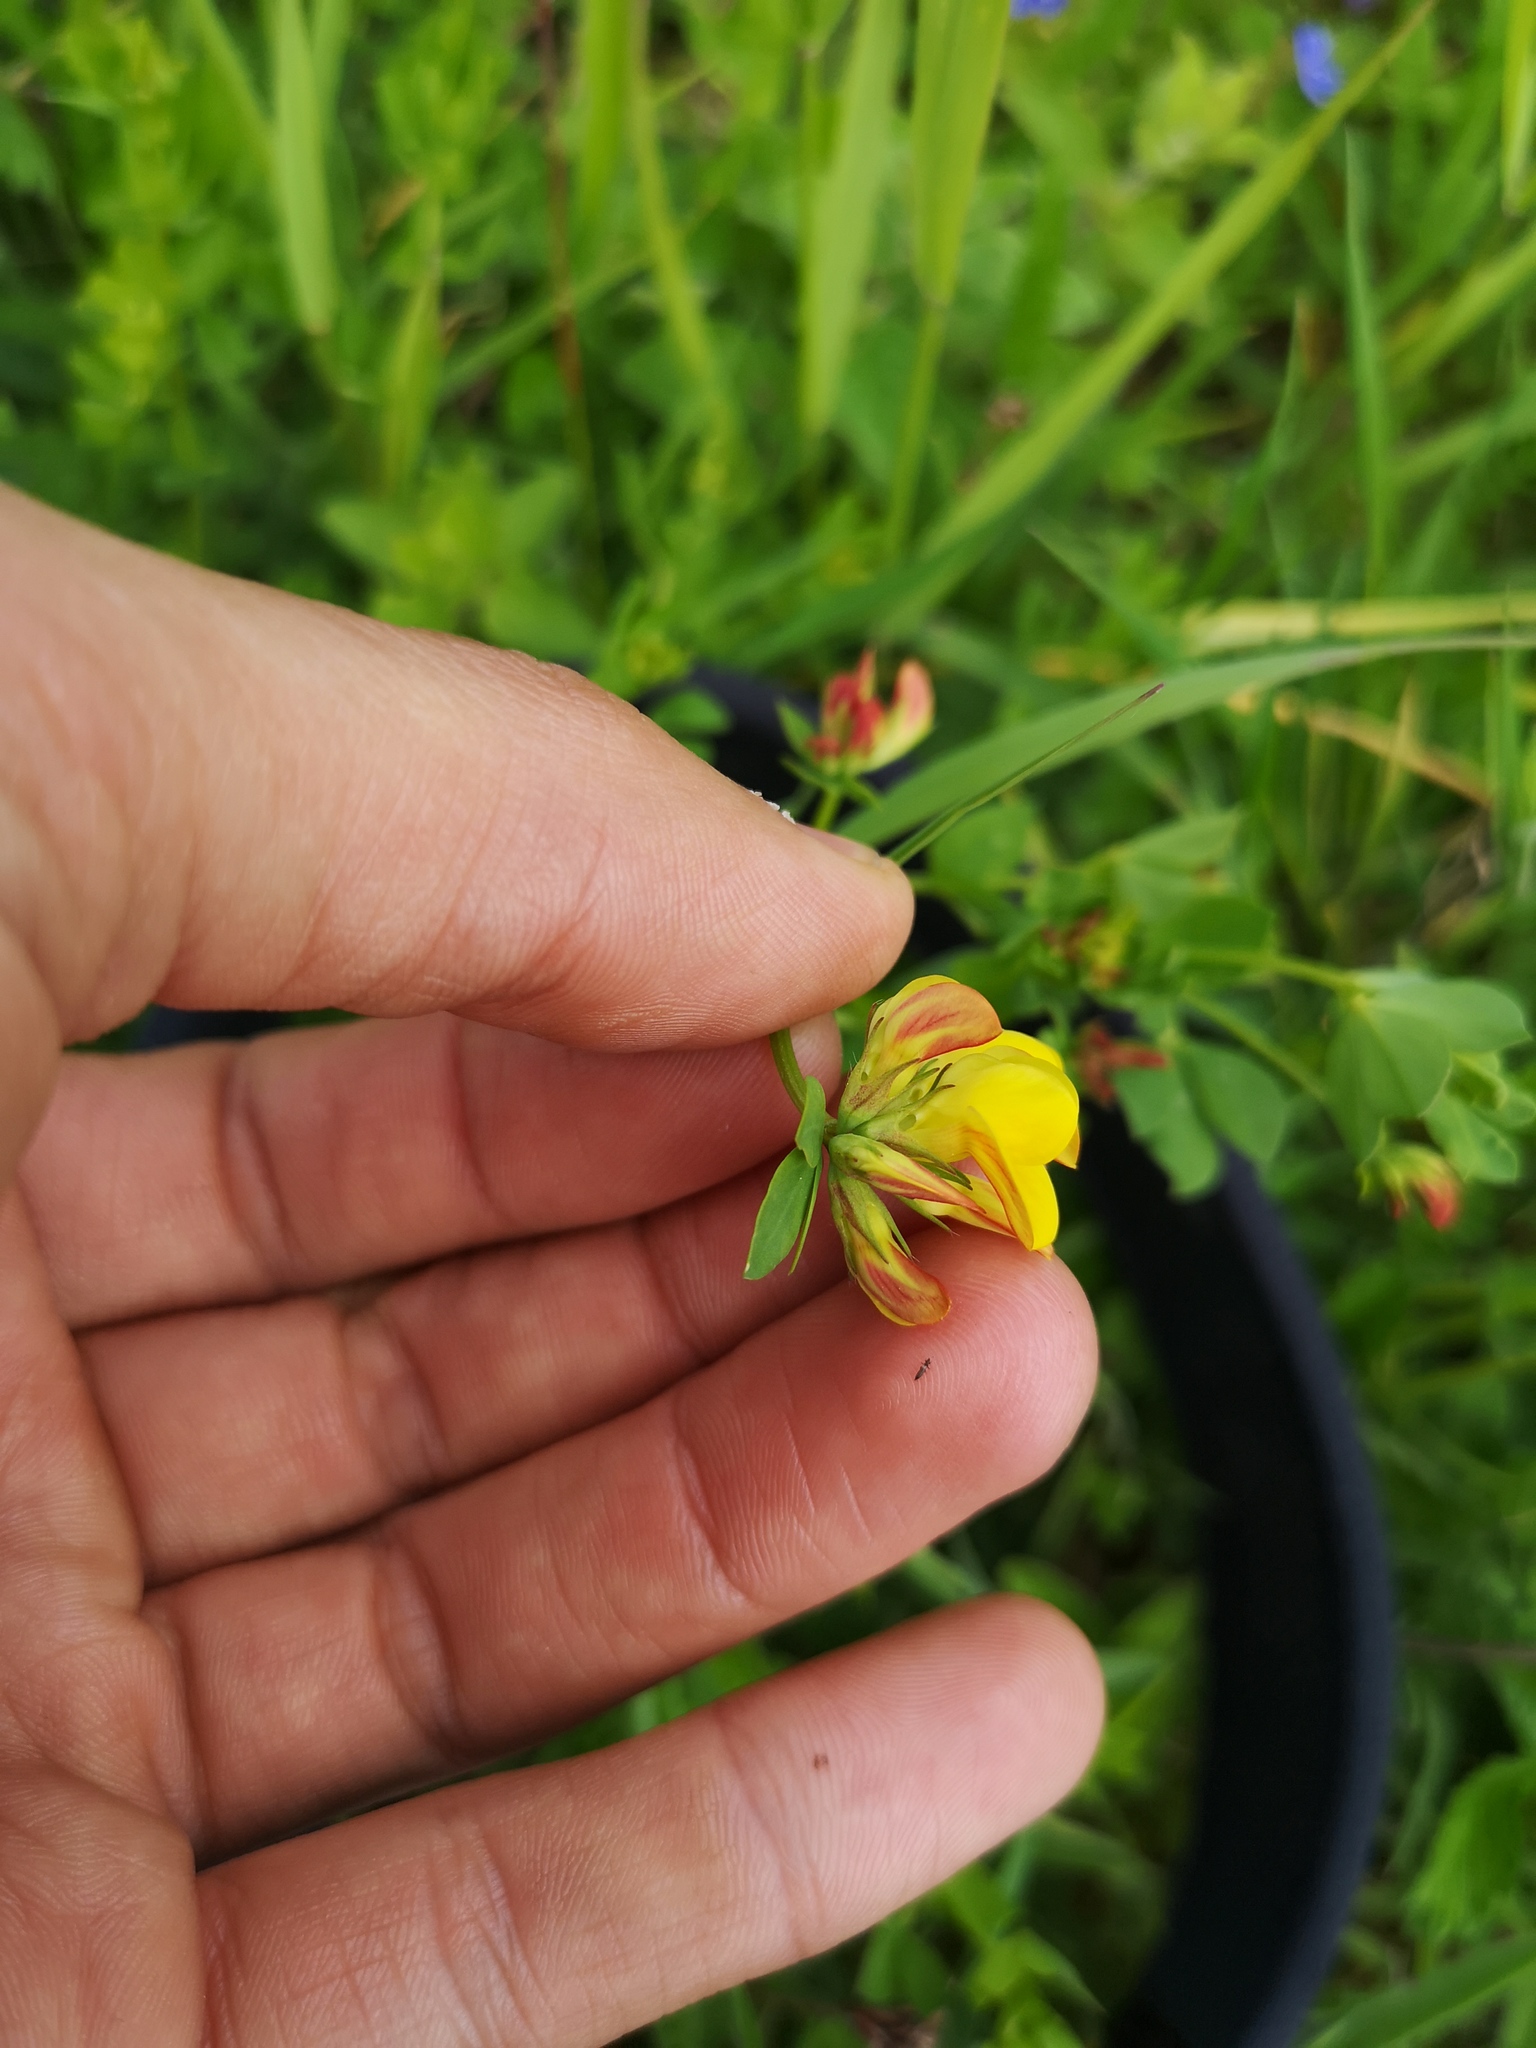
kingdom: Plantae
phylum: Tracheophyta
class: Magnoliopsida
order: Fabales
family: Fabaceae
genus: Lotus
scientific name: Lotus corniculatus
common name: Common bird's-foot-trefoil
